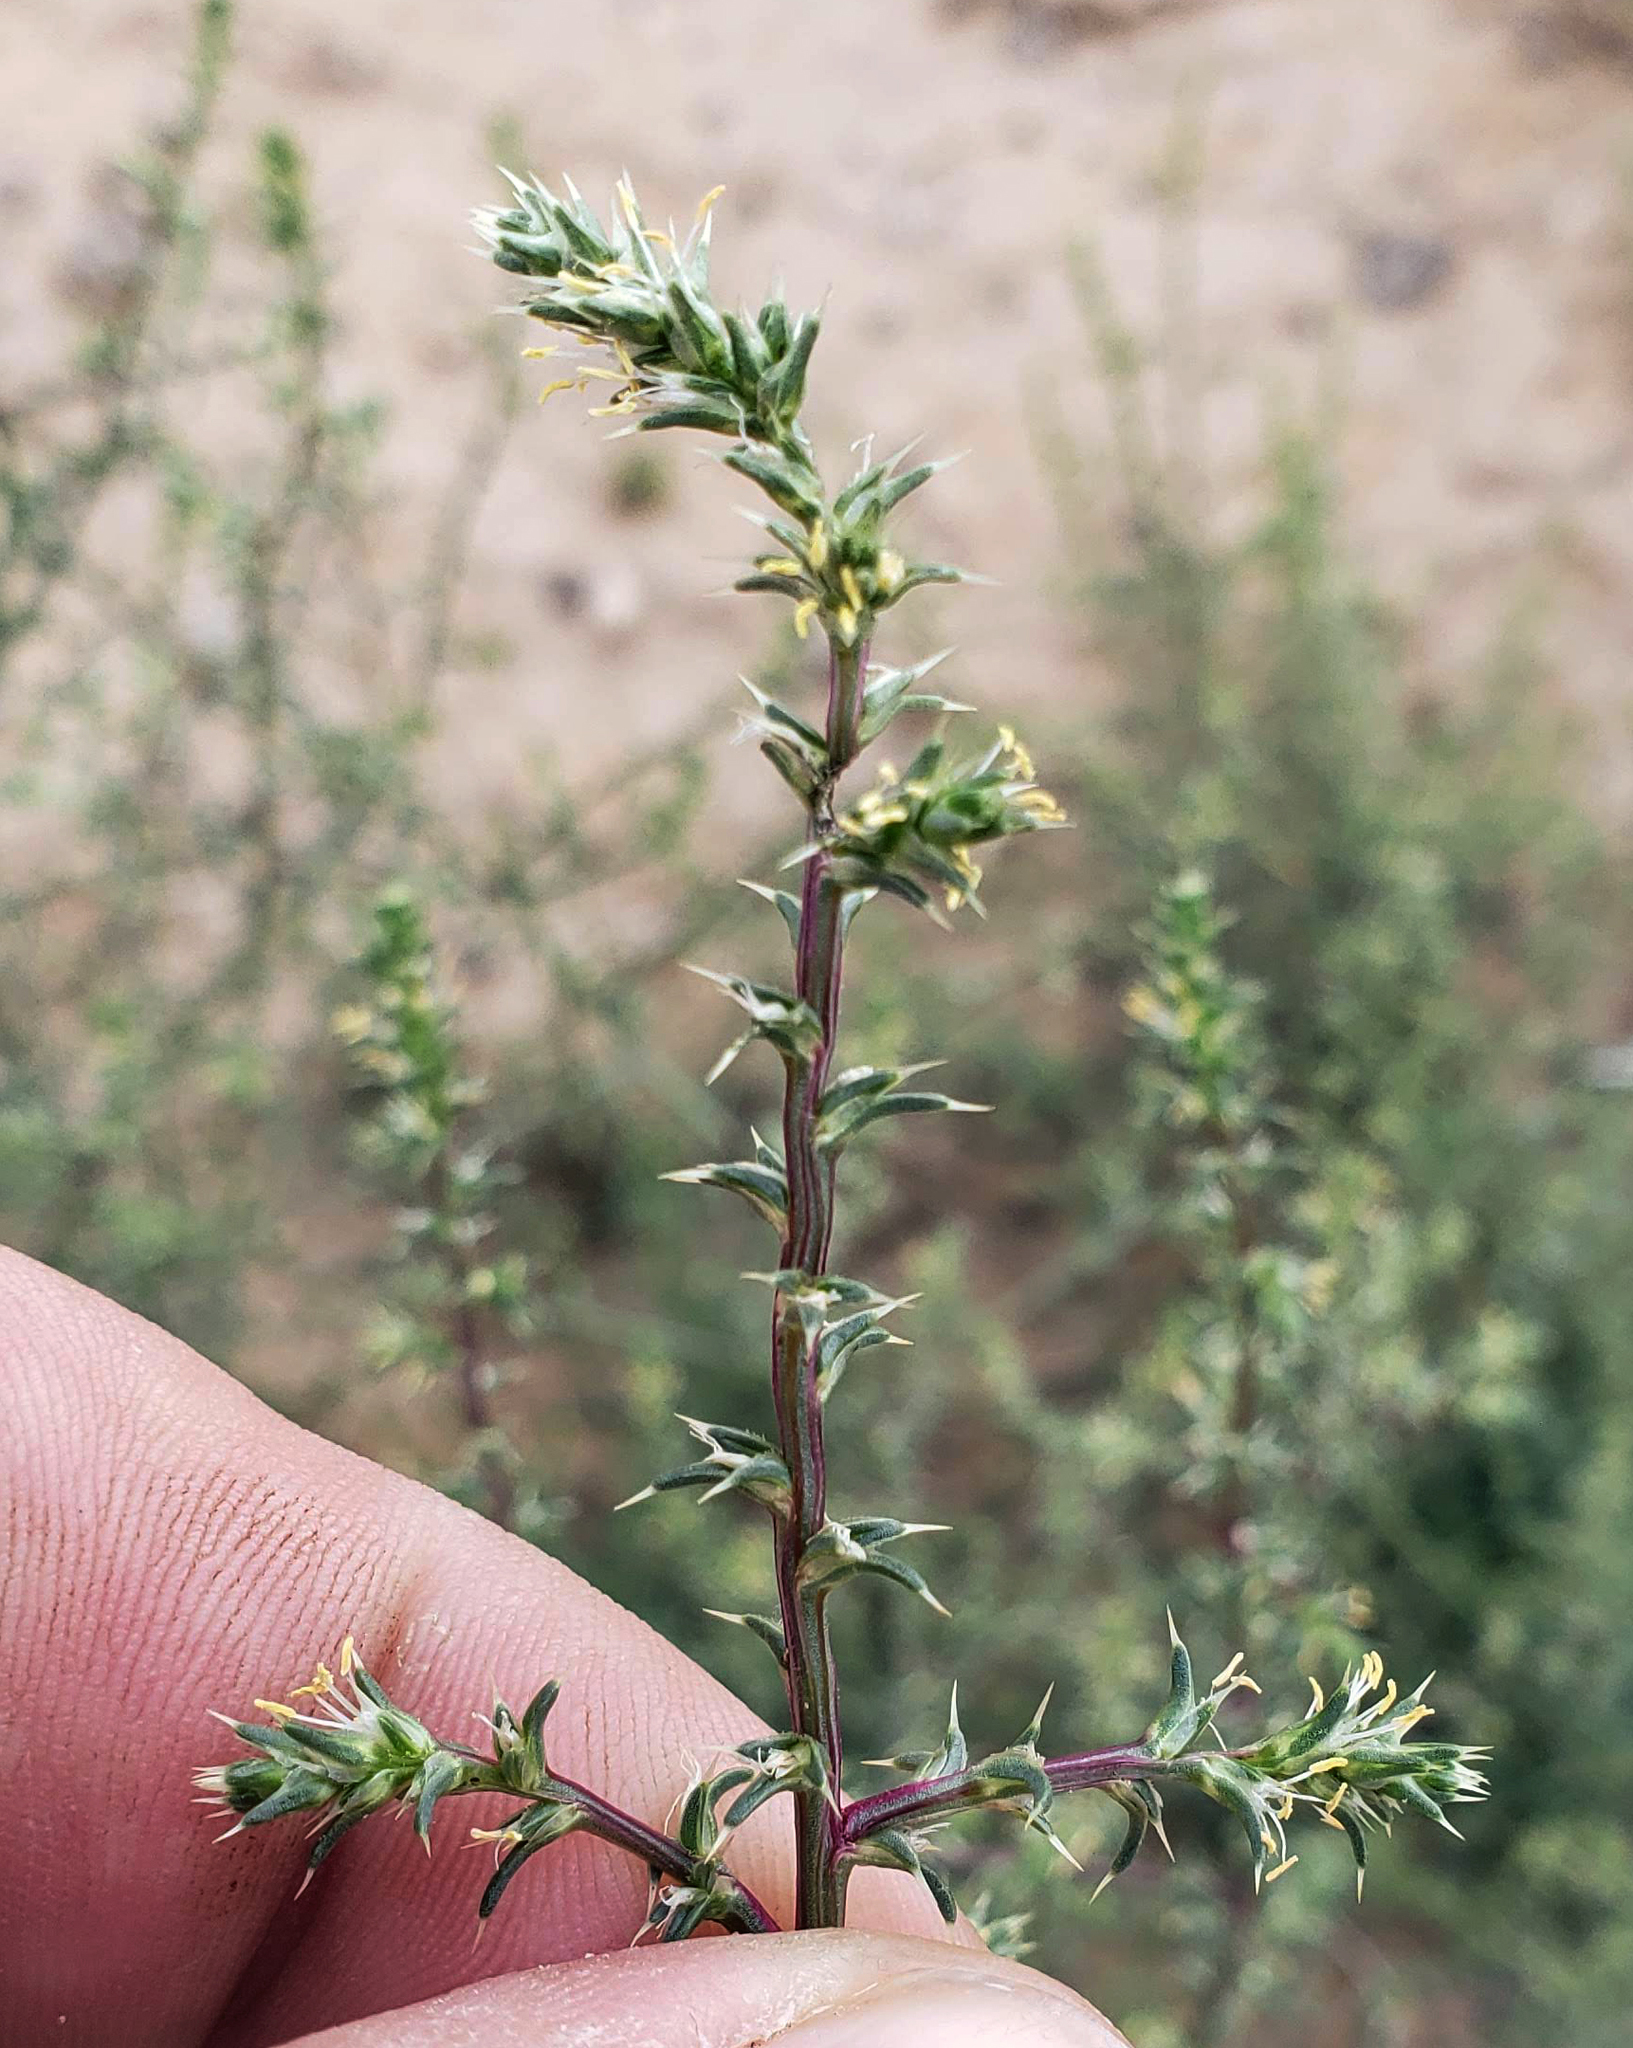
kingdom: Plantae
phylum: Tracheophyta
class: Magnoliopsida
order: Caryophyllales
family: Amaranthaceae
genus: Salsola
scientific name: Salsola tragus
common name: Prickly russian thistle
